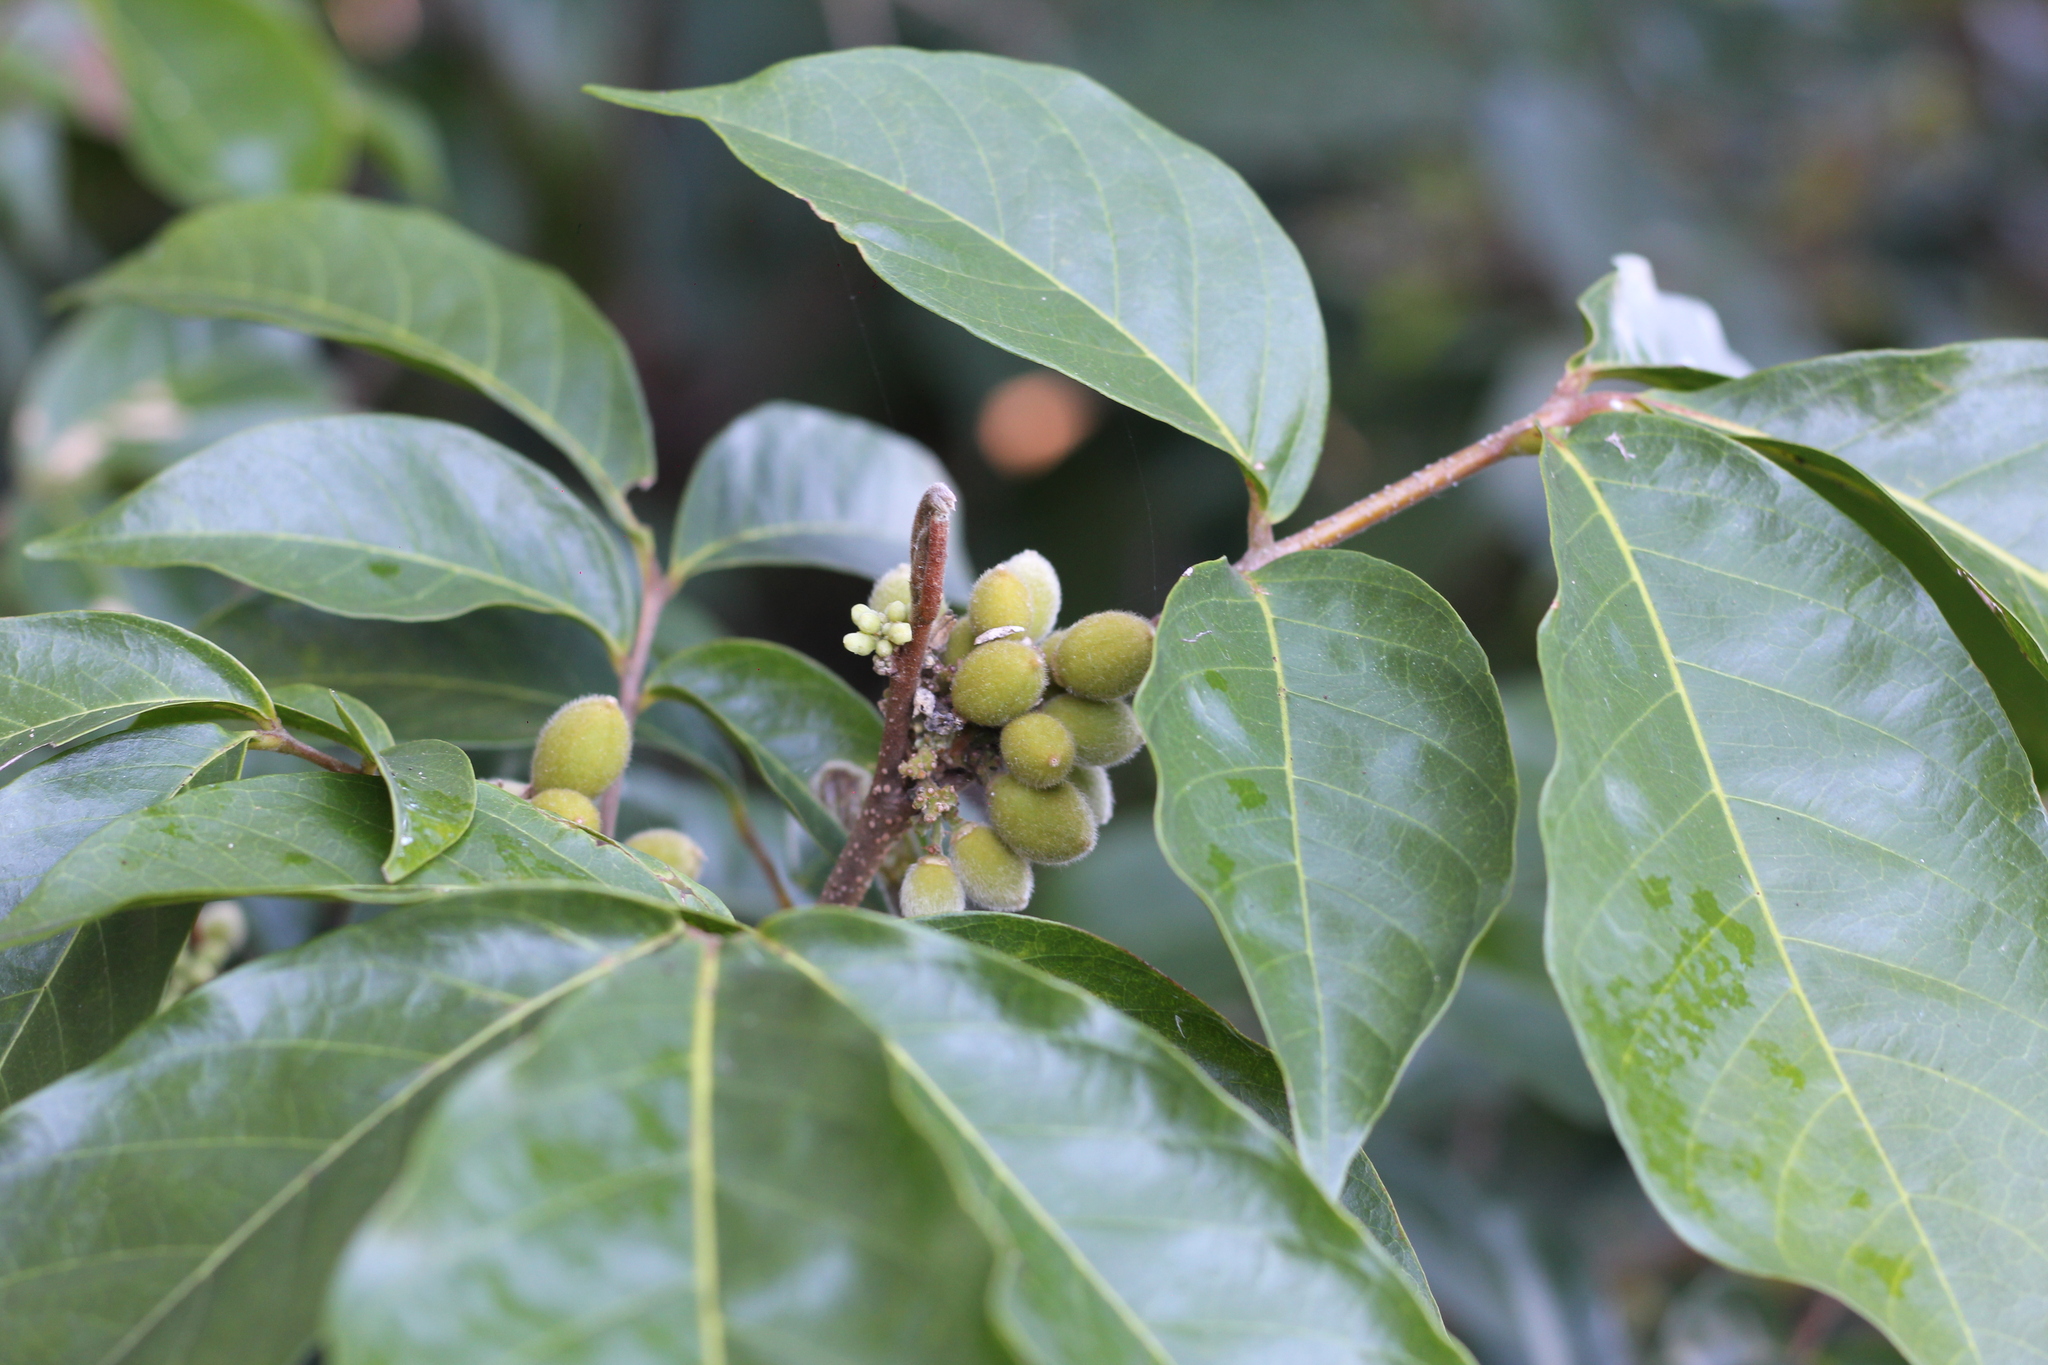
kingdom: Plantae
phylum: Tracheophyta
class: Magnoliopsida
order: Sapindales
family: Meliaceae
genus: Trichilia
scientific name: Trichilia pallida
